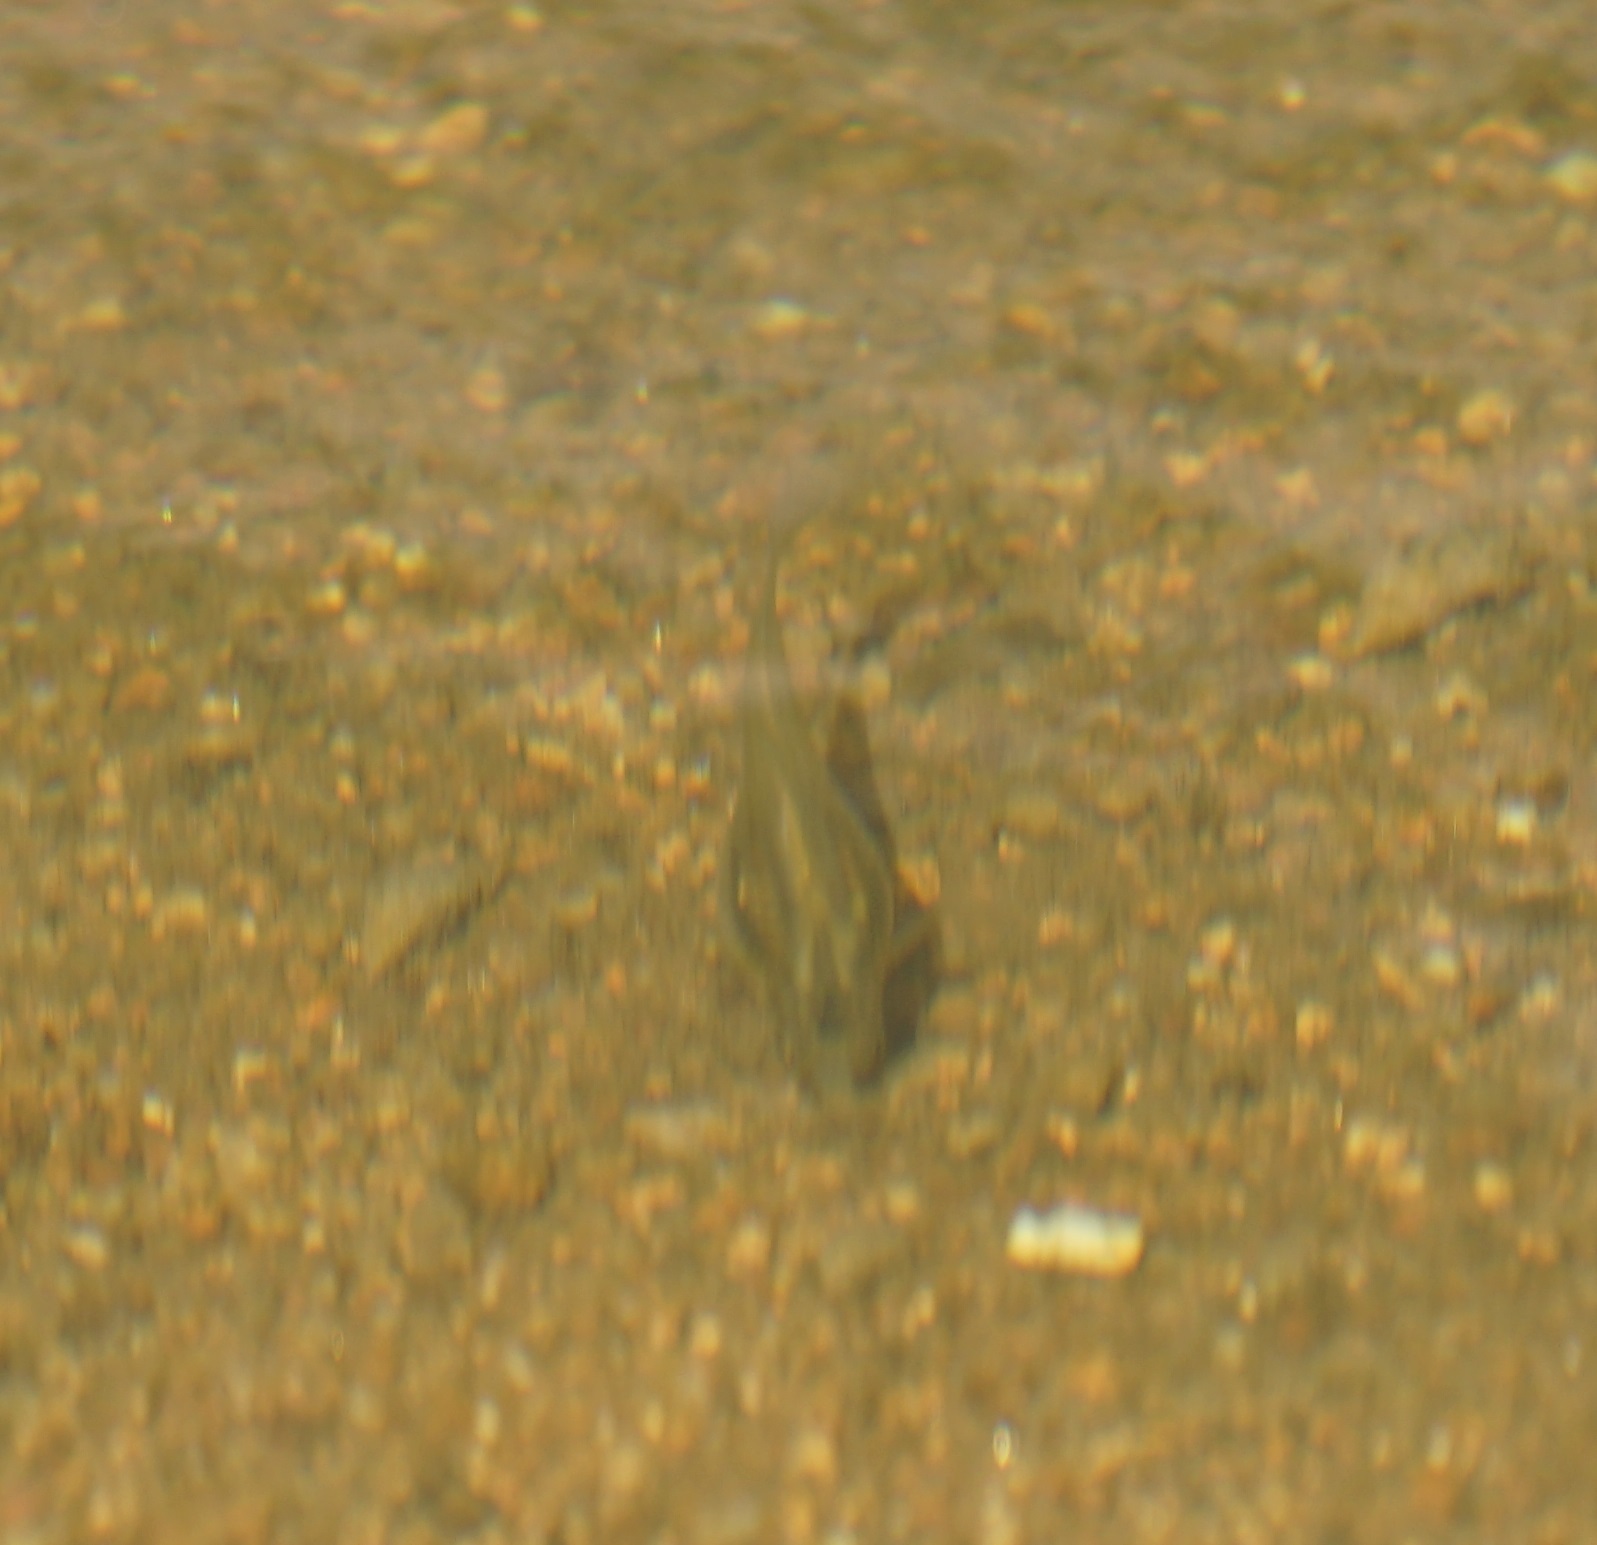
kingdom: Animalia
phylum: Chordata
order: Cyprinodontiformes
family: Poeciliidae
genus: Gambusia
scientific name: Gambusia holbrooki
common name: Eastern mosquitofish
